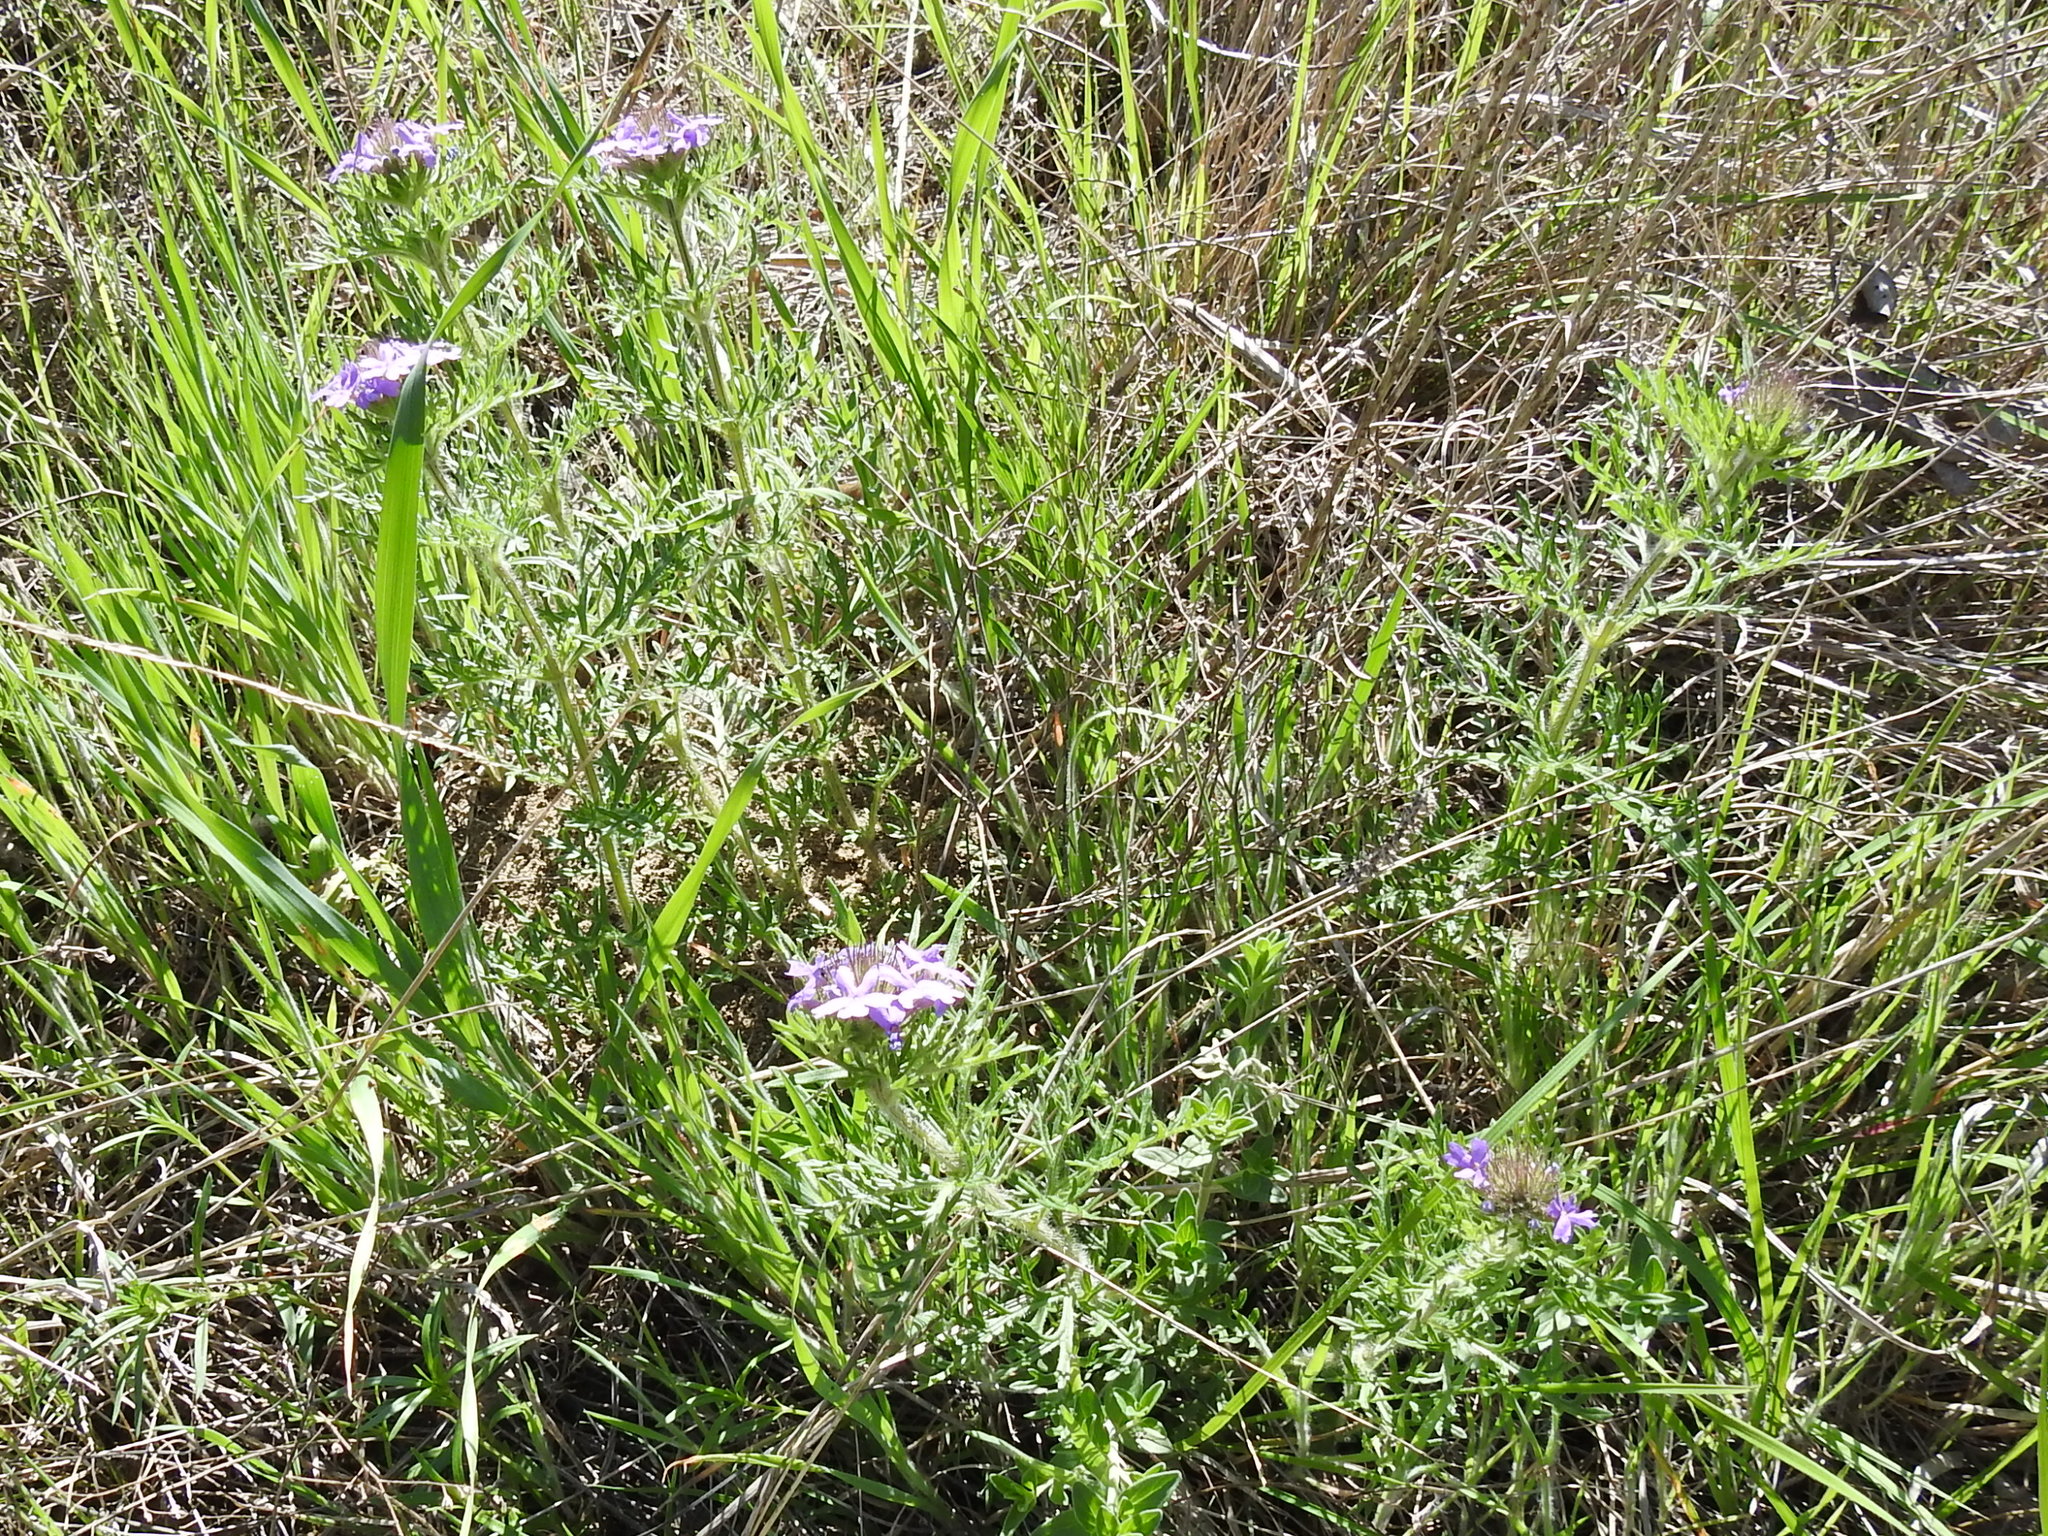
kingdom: Plantae
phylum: Tracheophyta
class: Magnoliopsida
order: Lamiales
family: Verbenaceae
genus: Verbena
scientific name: Verbena bipinnatifida
